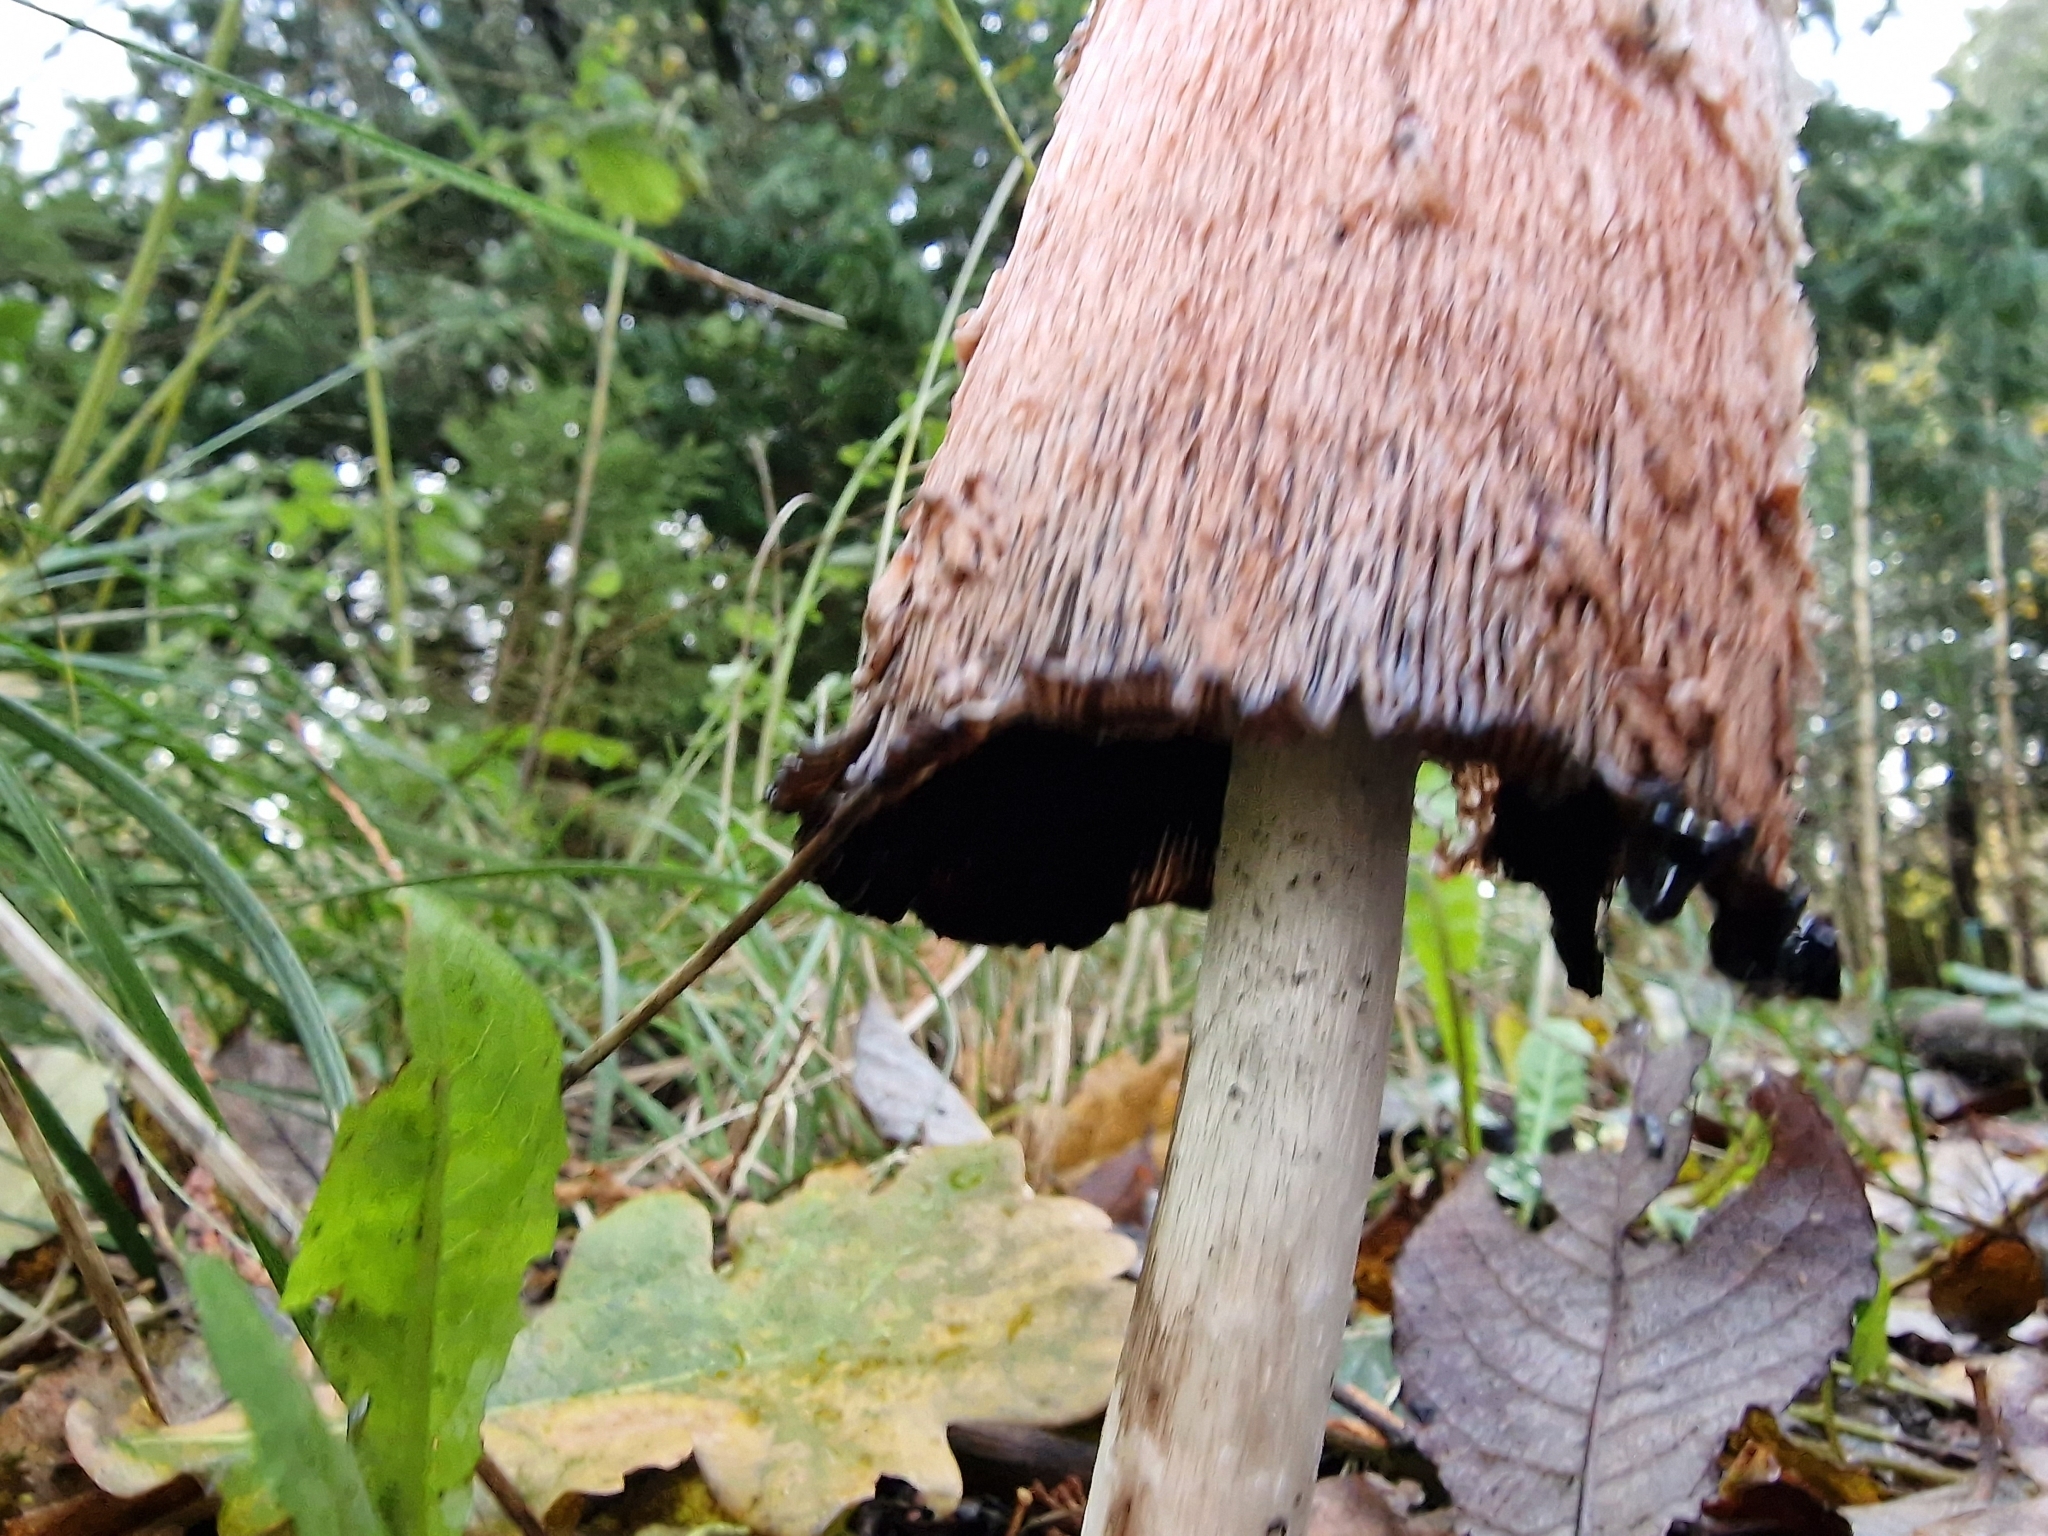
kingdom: Fungi
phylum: Basidiomycota
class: Agaricomycetes
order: Agaricales
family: Agaricaceae
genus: Coprinus
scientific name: Coprinus comatus
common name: Lawyer's wig
